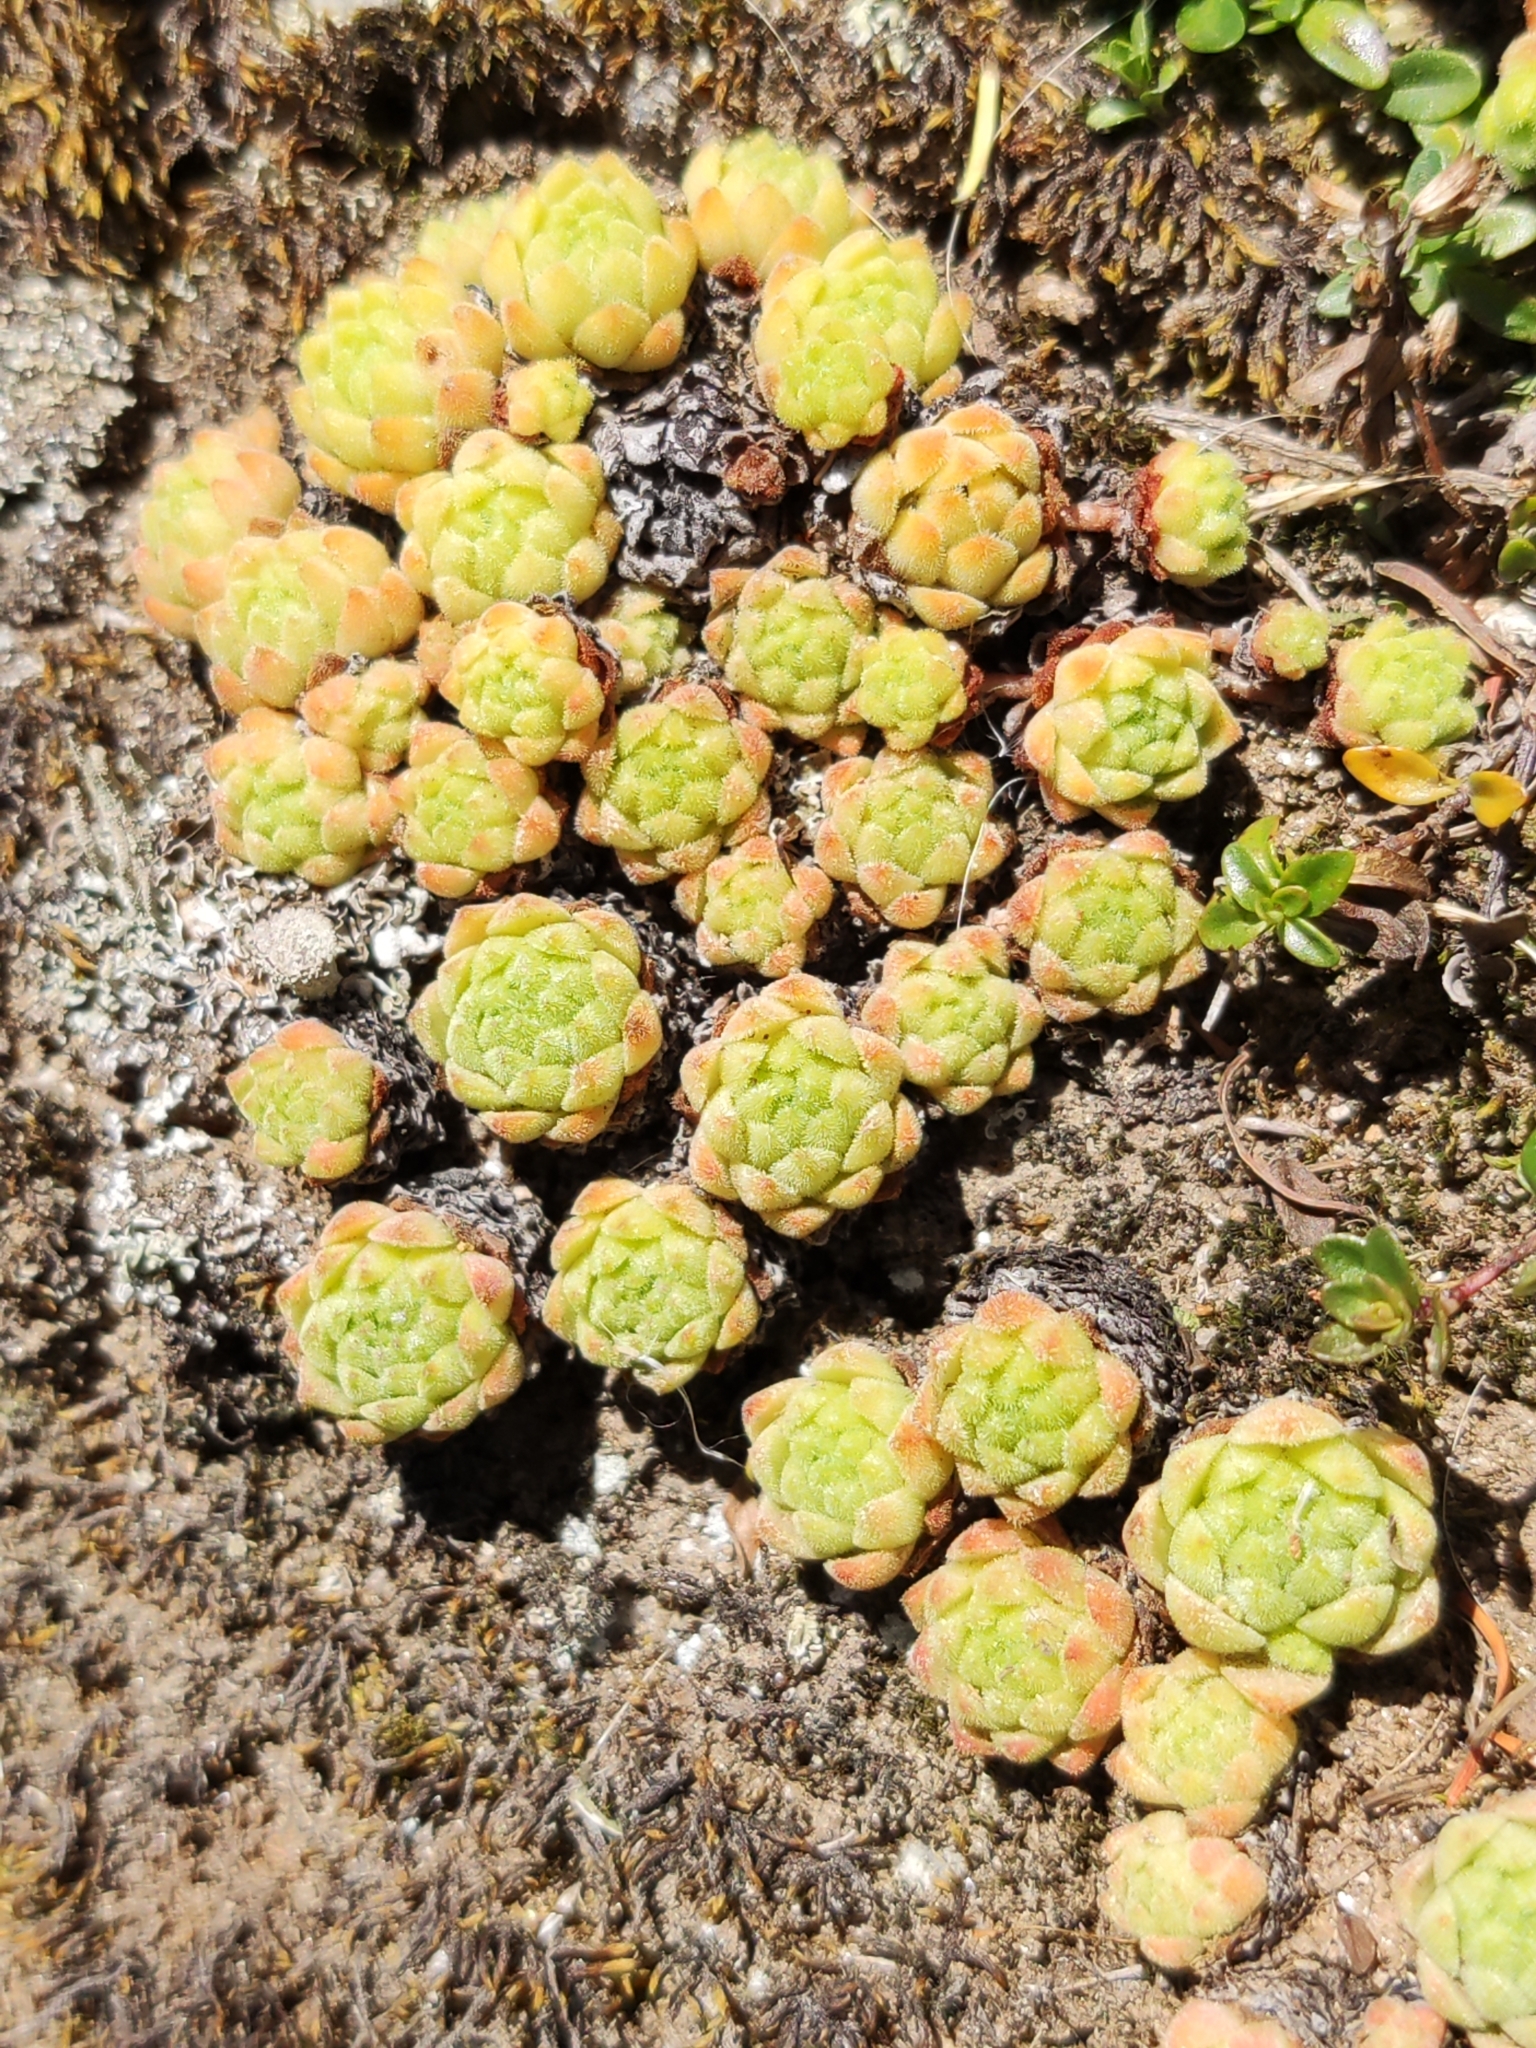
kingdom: Plantae
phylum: Tracheophyta
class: Magnoliopsida
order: Saxifragales
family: Crassulaceae
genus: Sempervivum
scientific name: Sempervivum montanum
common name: Mountain house-leek
